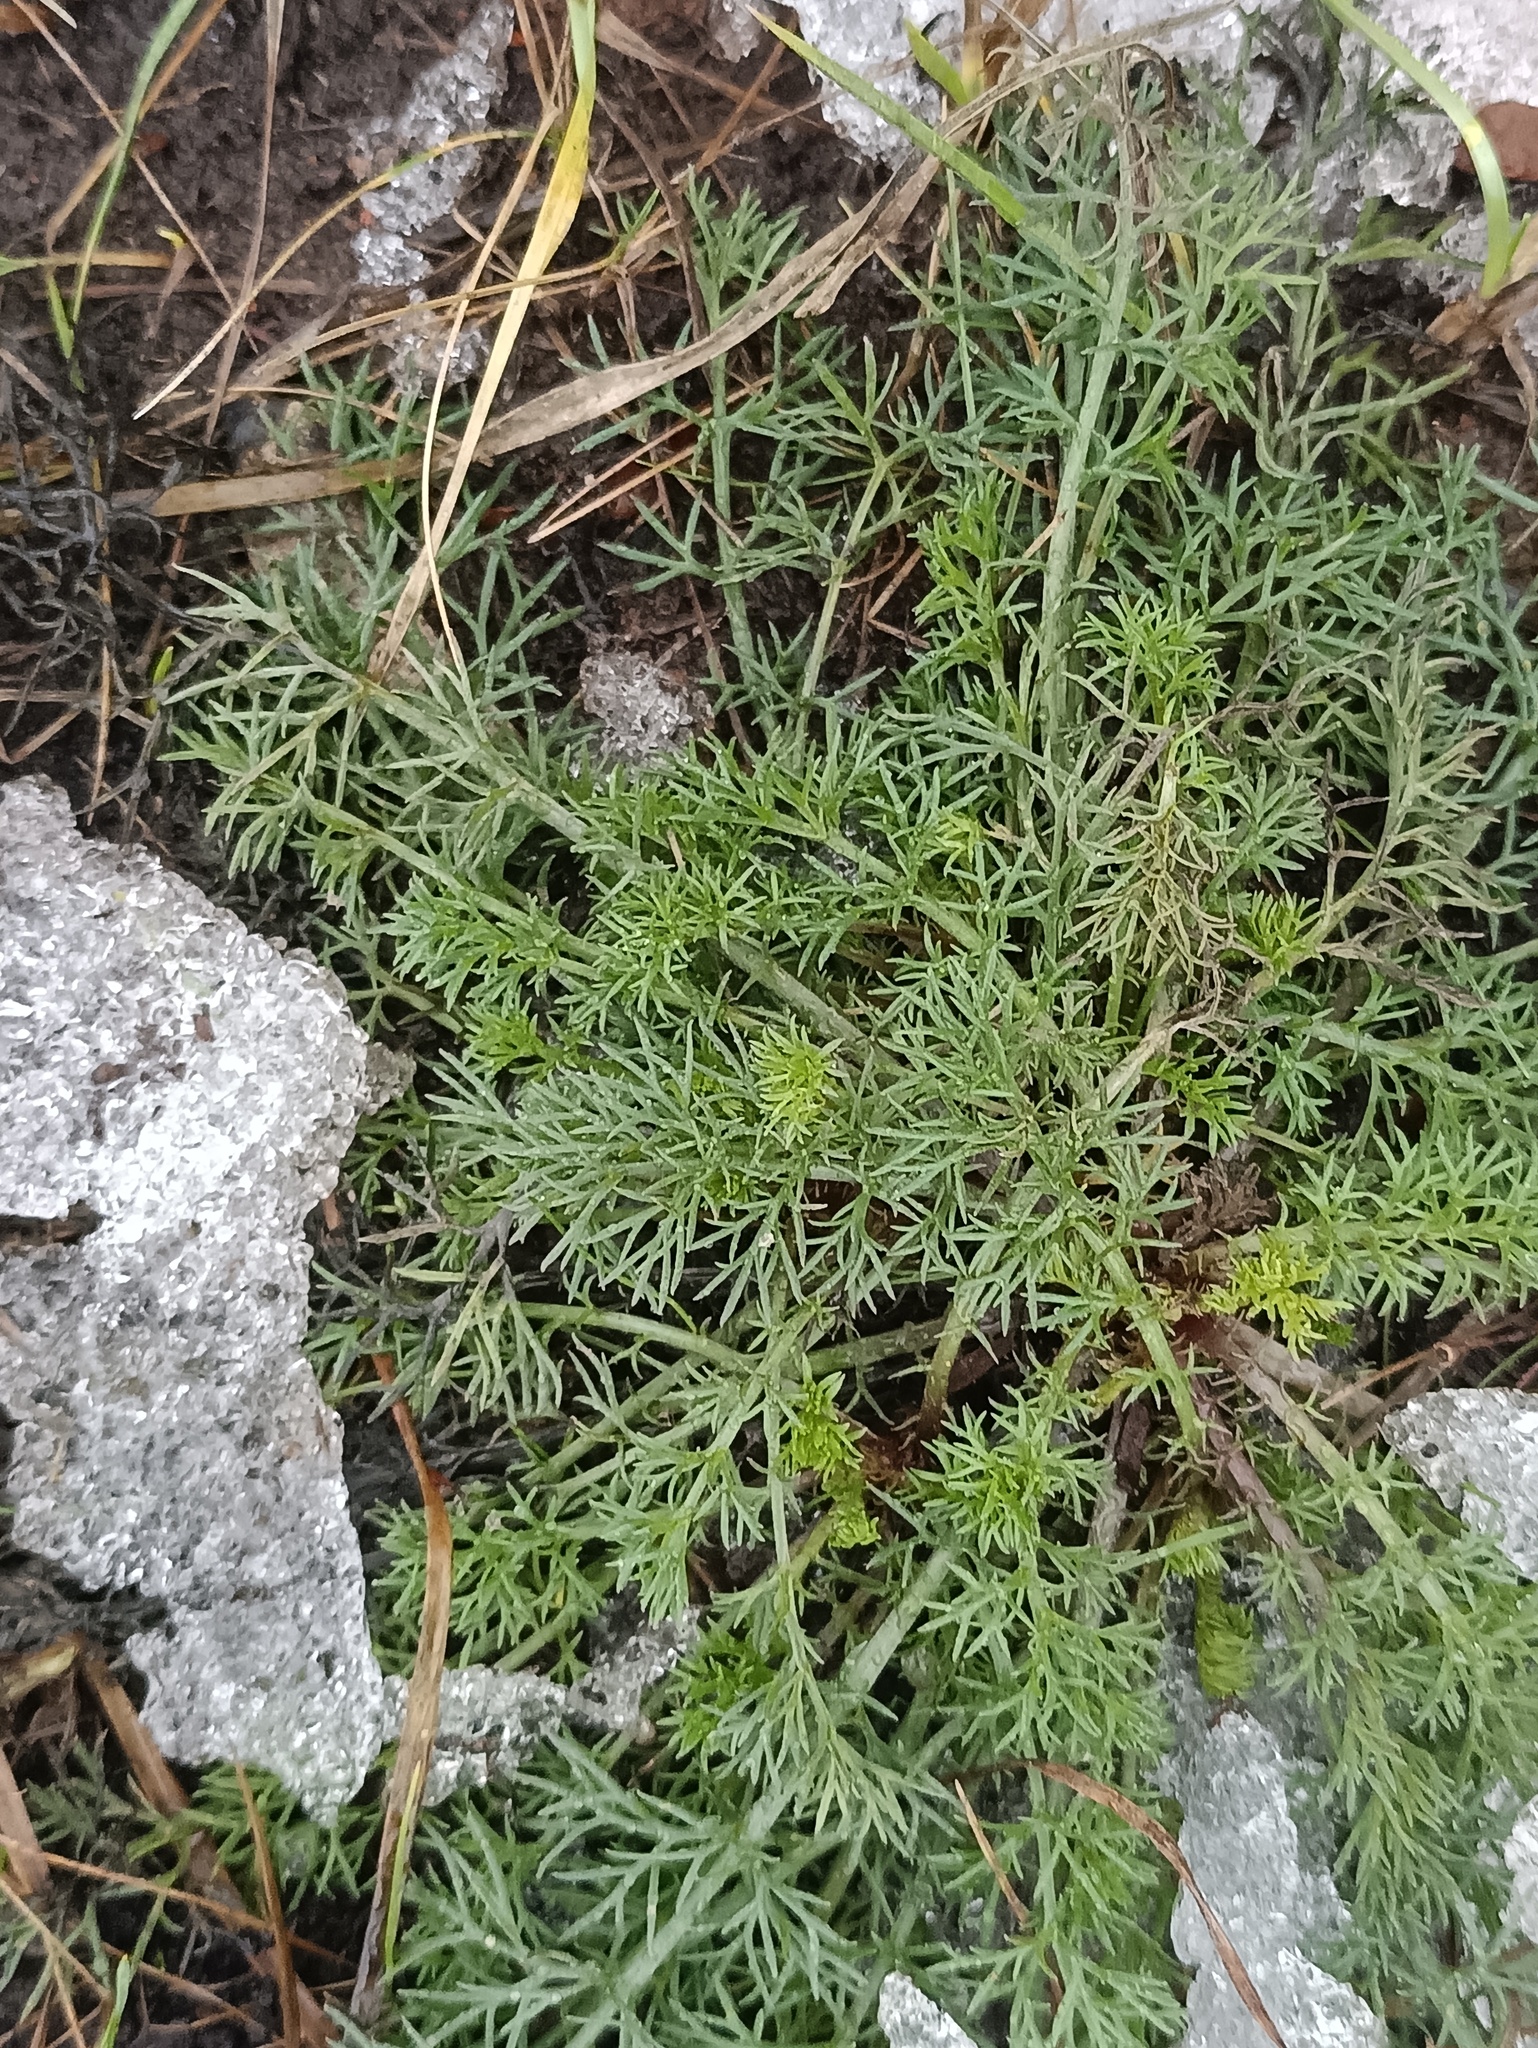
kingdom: Plantae
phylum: Tracheophyta
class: Magnoliopsida
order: Asterales
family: Asteraceae
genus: Tripleurospermum
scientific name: Tripleurospermum inodorum
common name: Scentless mayweed
